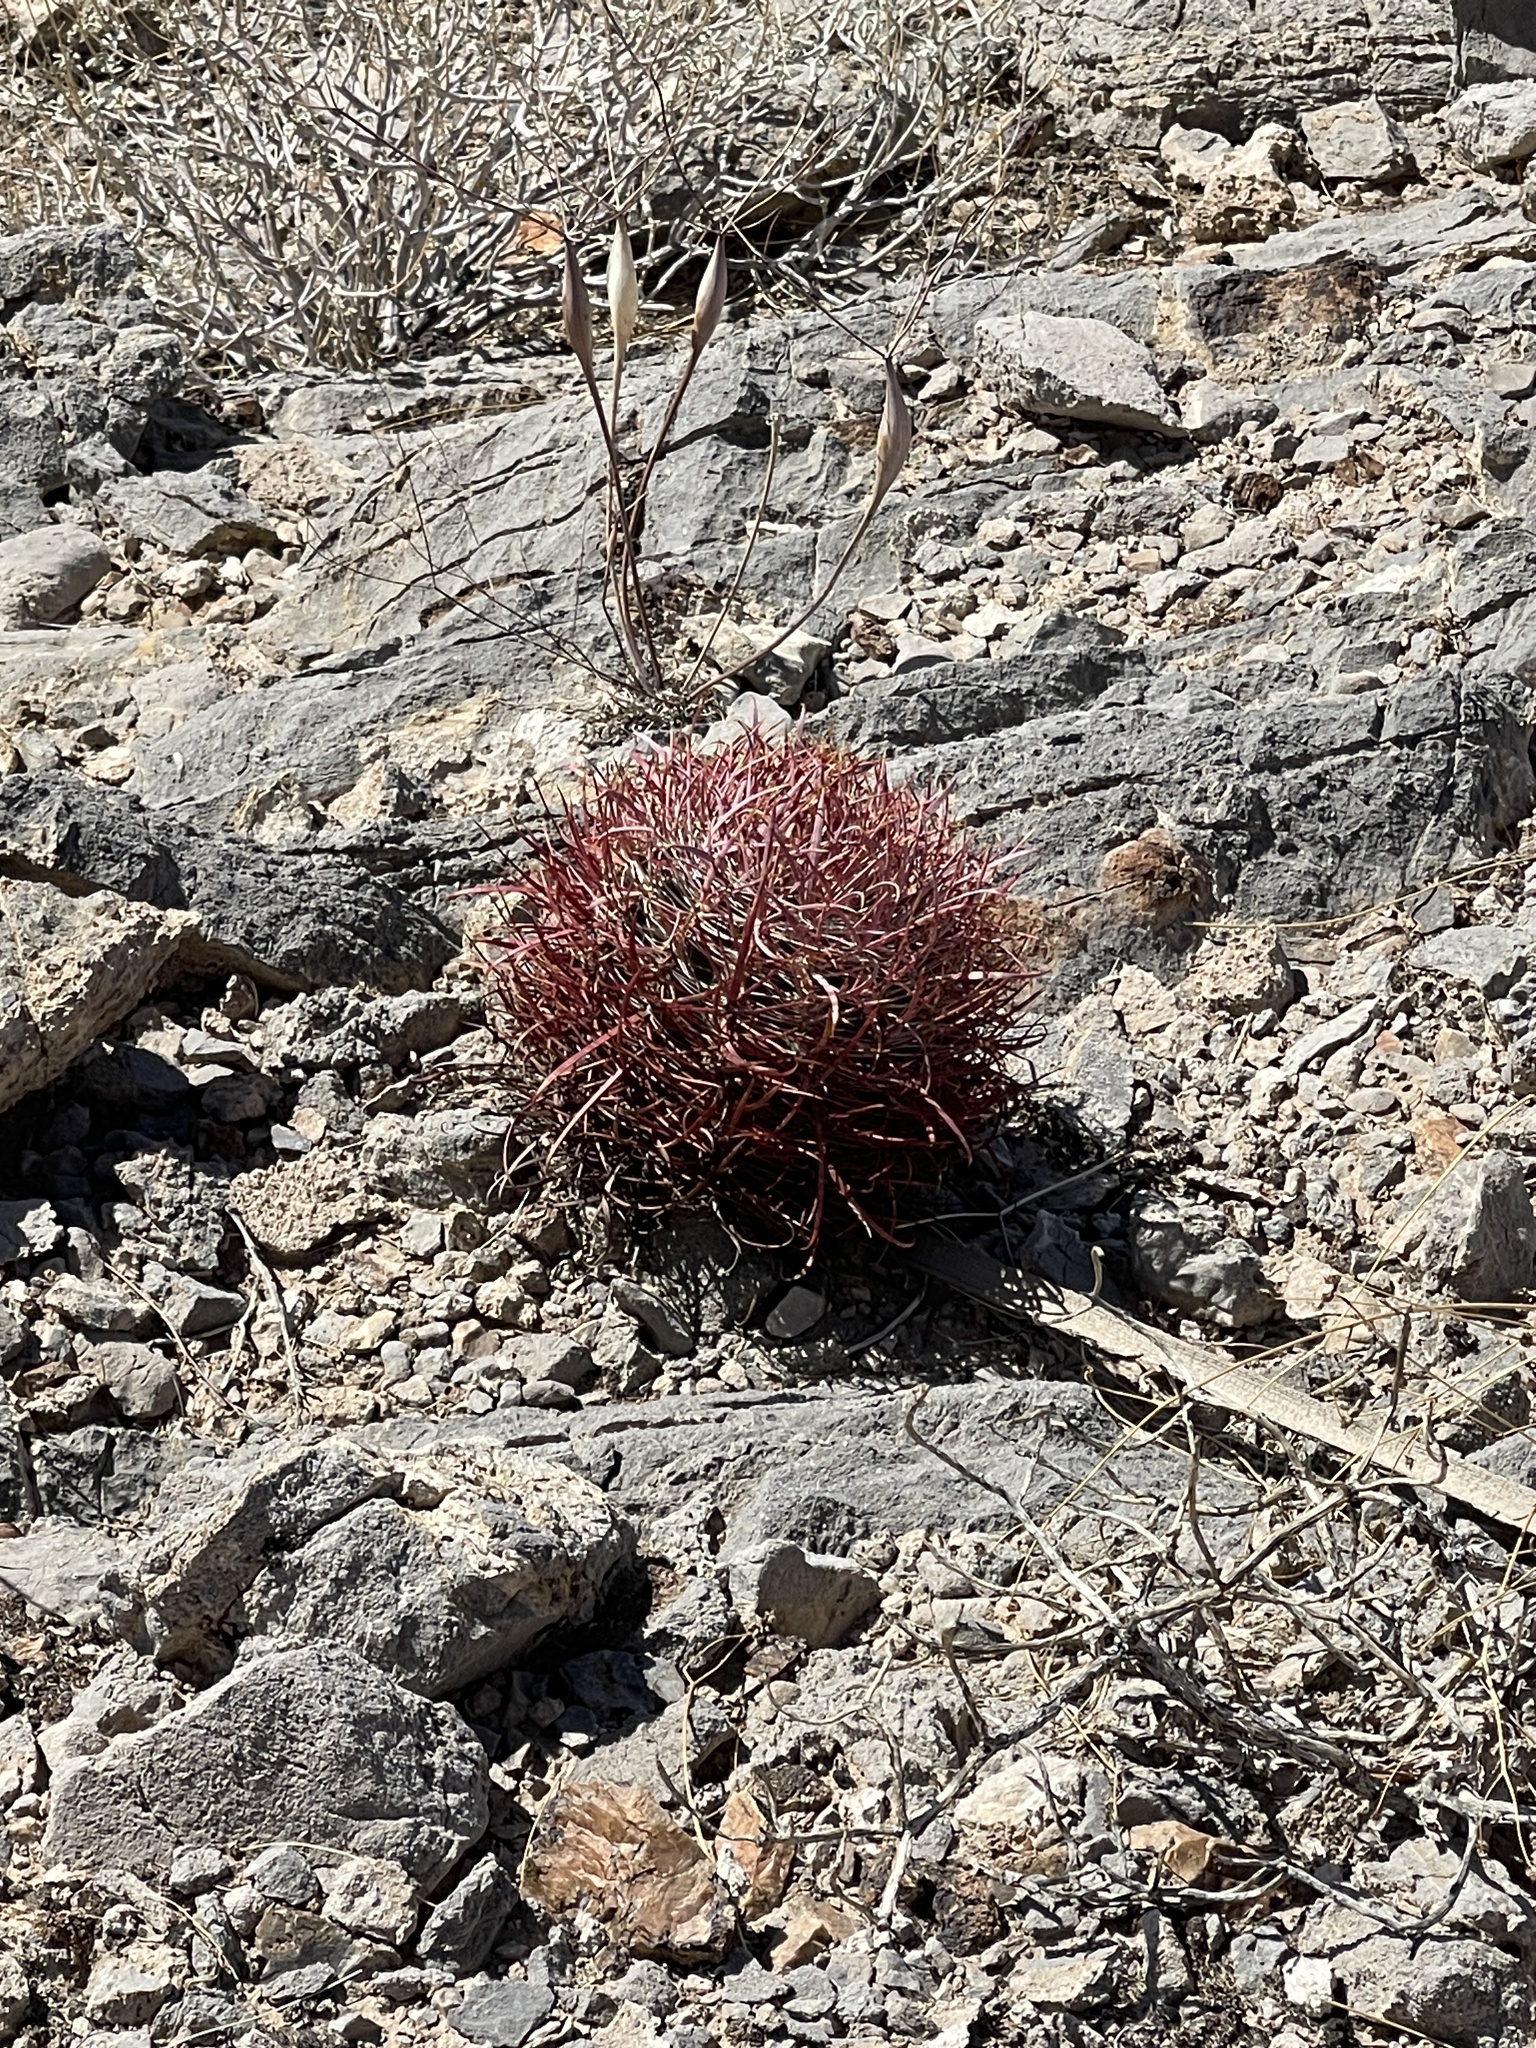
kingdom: Plantae
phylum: Tracheophyta
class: Magnoliopsida
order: Caryophyllales
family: Cactaceae
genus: Ferocactus
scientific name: Ferocactus cylindraceus
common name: California barrel cactus
